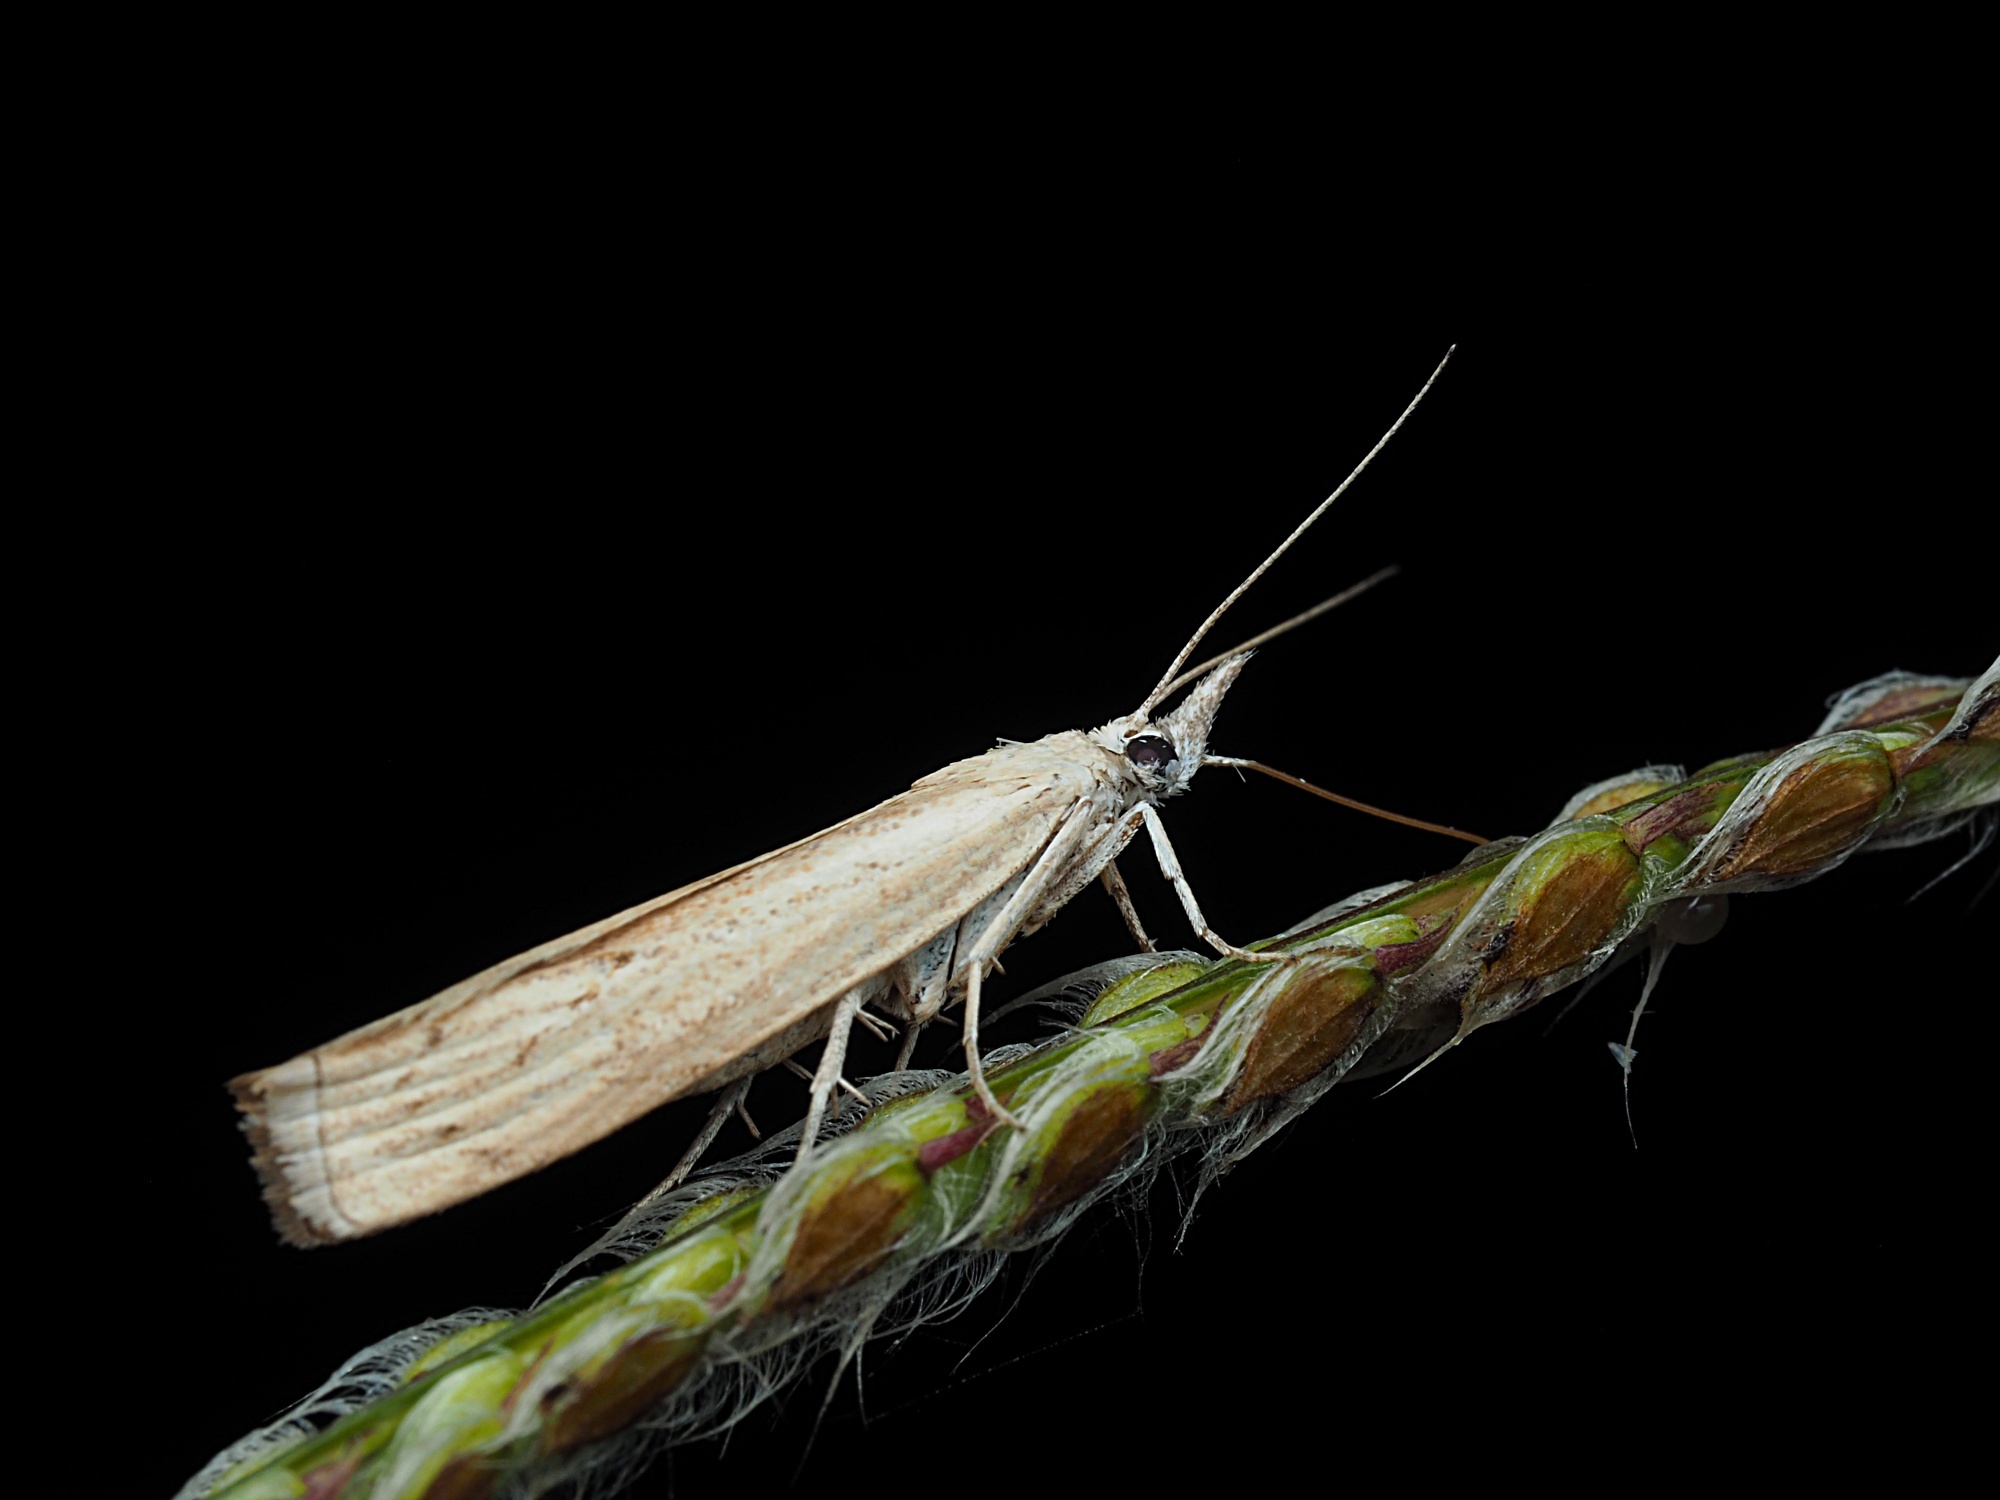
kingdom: Animalia
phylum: Arthropoda
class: Insecta
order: Lepidoptera
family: Crambidae
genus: Culladia
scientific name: Culladia cuneiferellus
